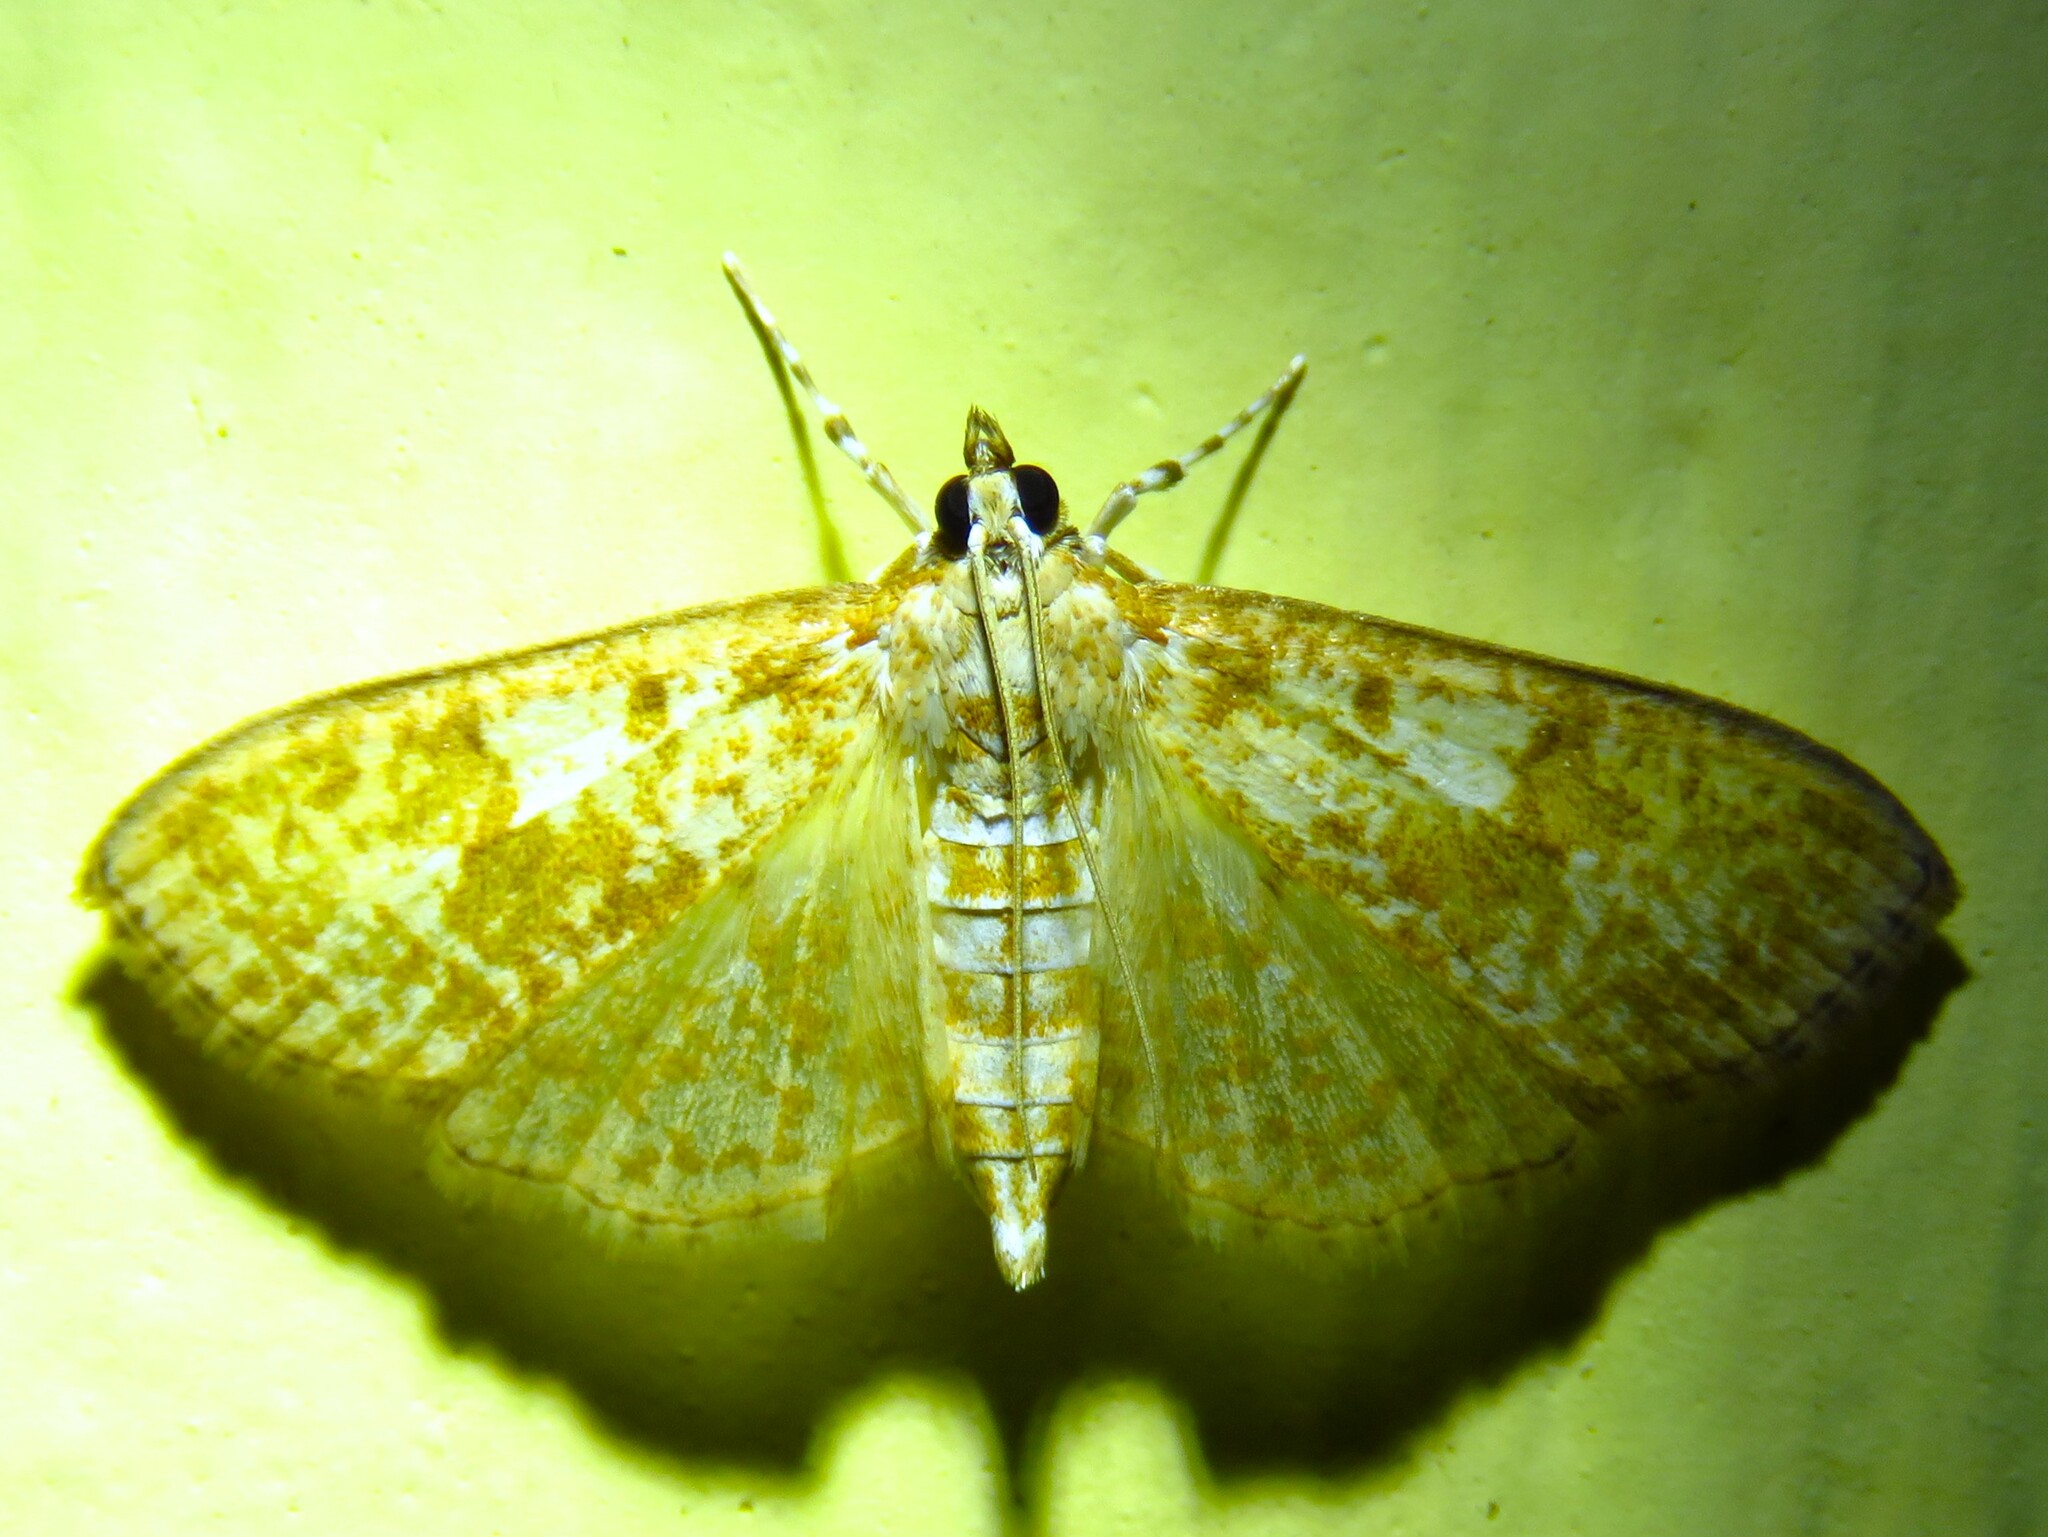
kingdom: Animalia
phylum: Arthropoda
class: Insecta
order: Lepidoptera
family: Crambidae
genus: Palpita
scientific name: Palpita freemanalis
